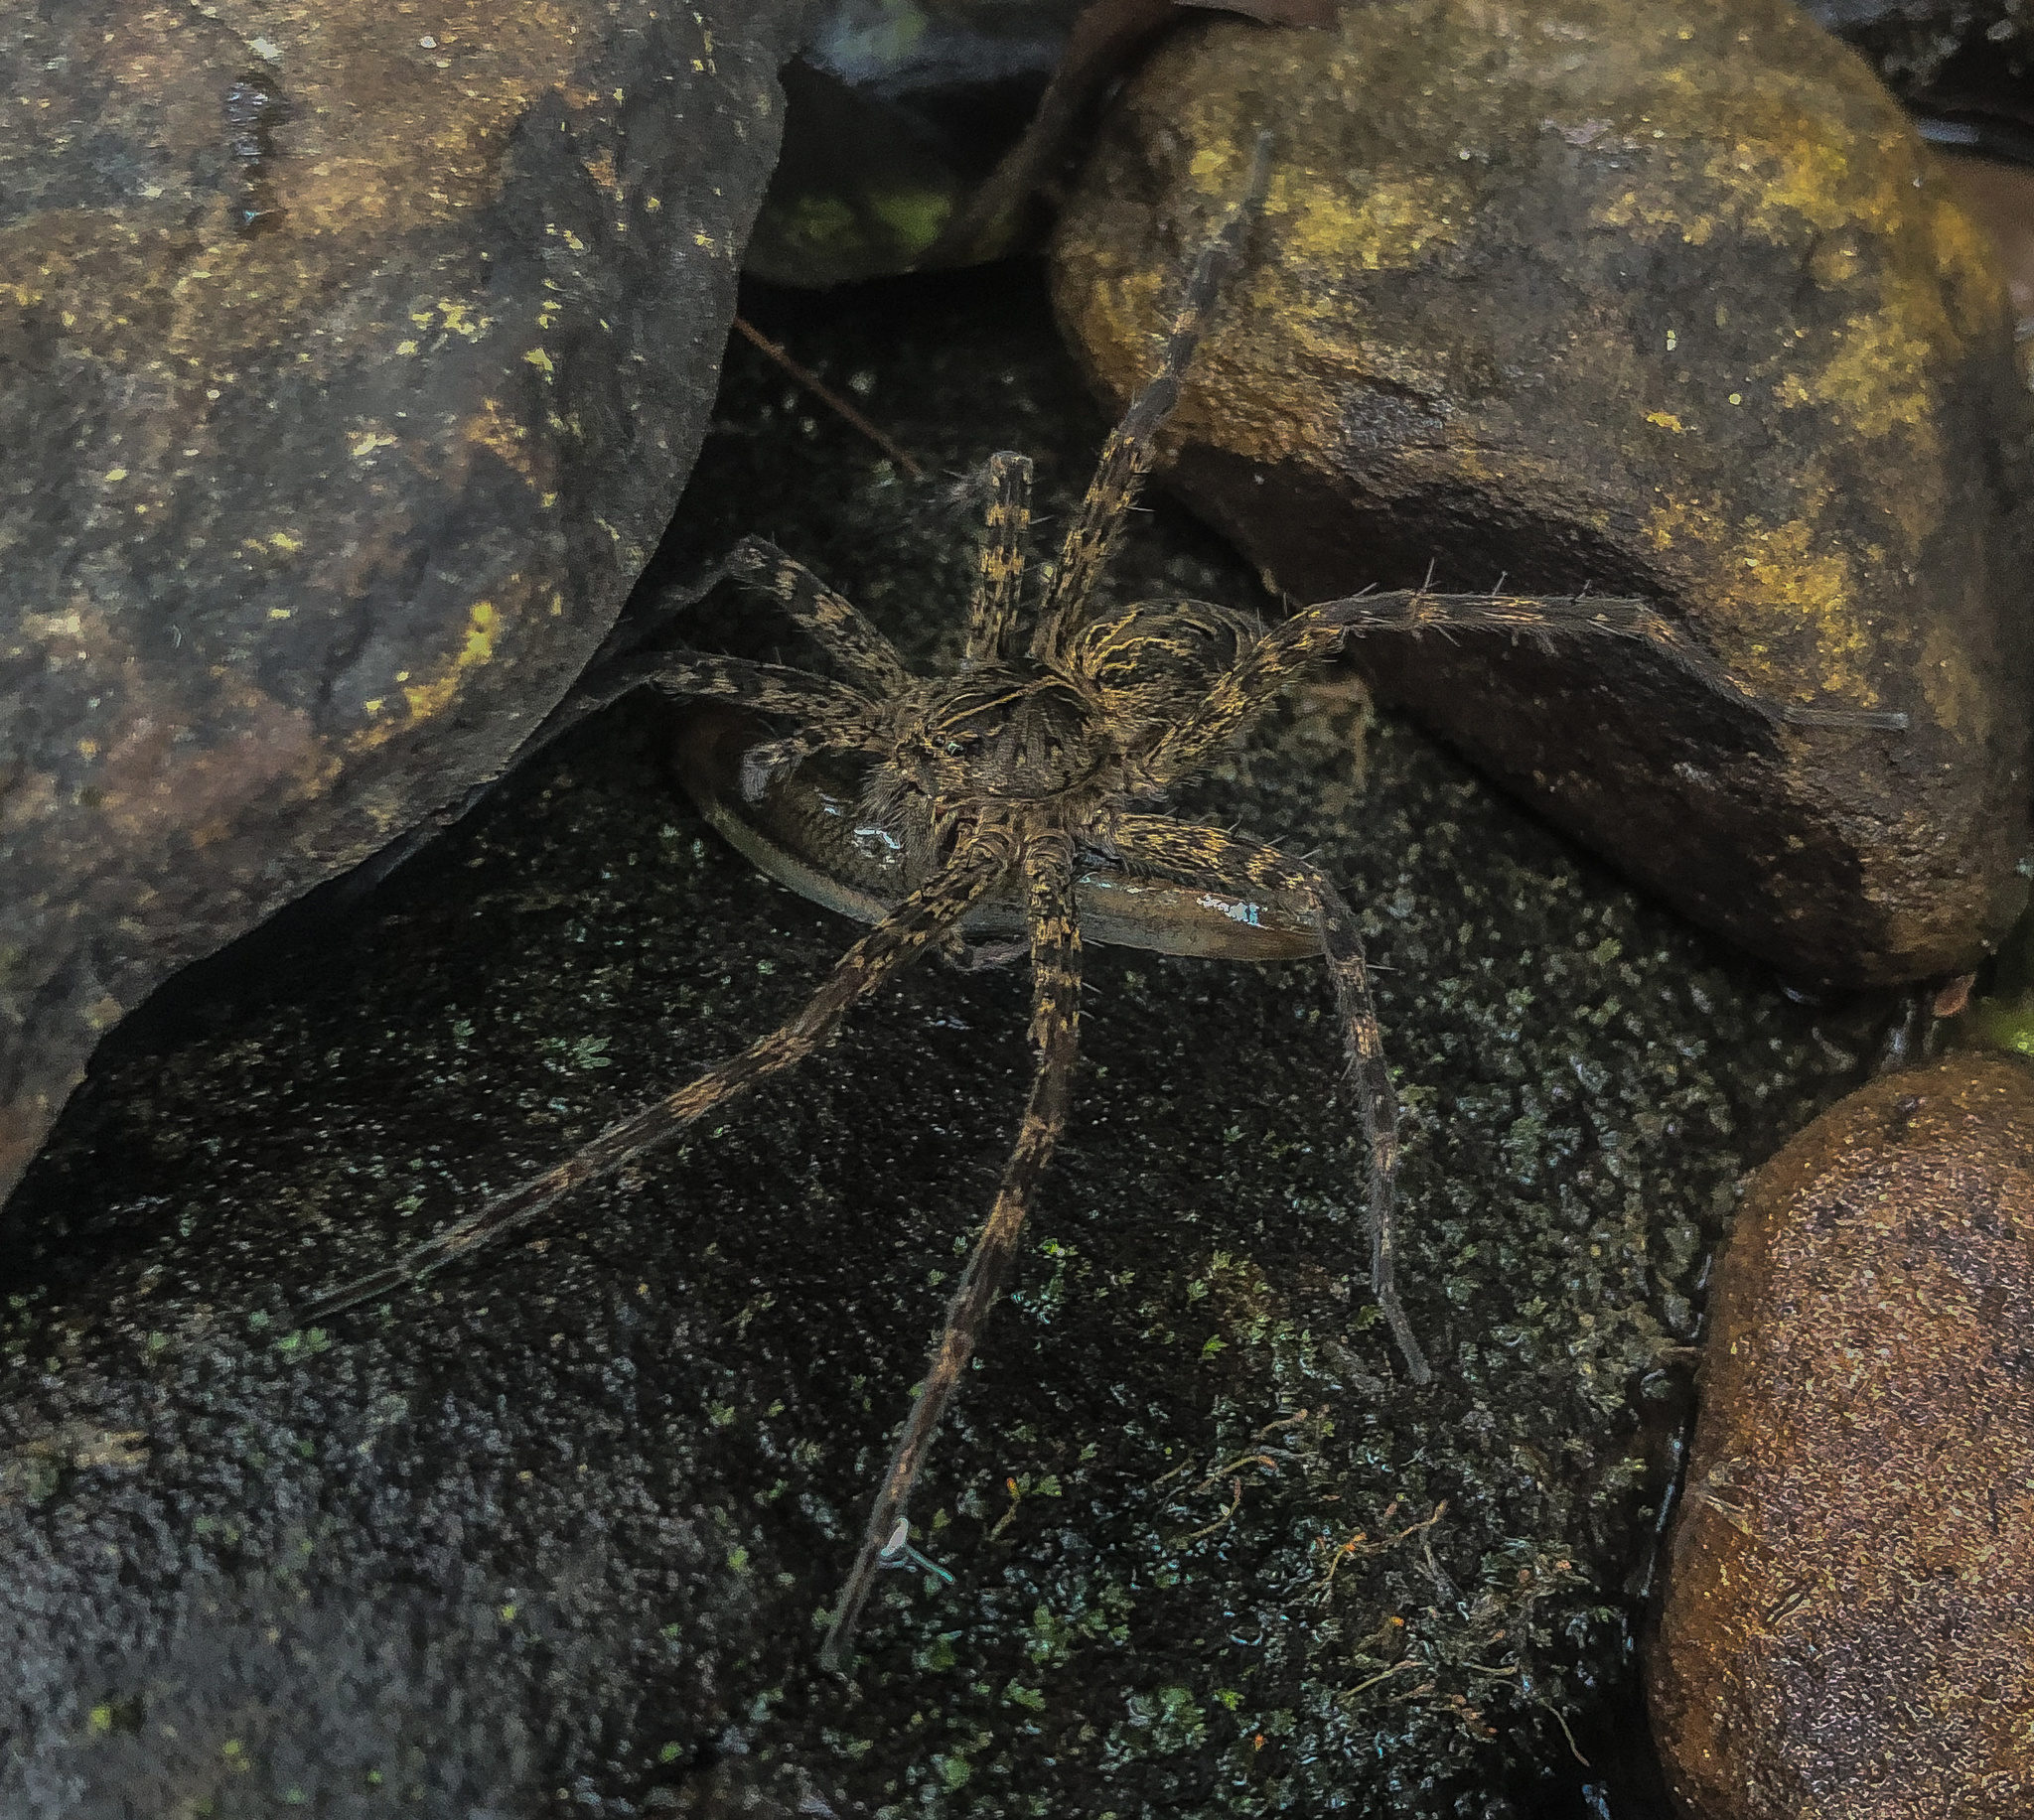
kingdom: Animalia
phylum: Arthropoda
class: Arachnida
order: Araneae
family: Pisauridae
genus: Dolomedes
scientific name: Dolomedes scriptus
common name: Striped fishing spider
